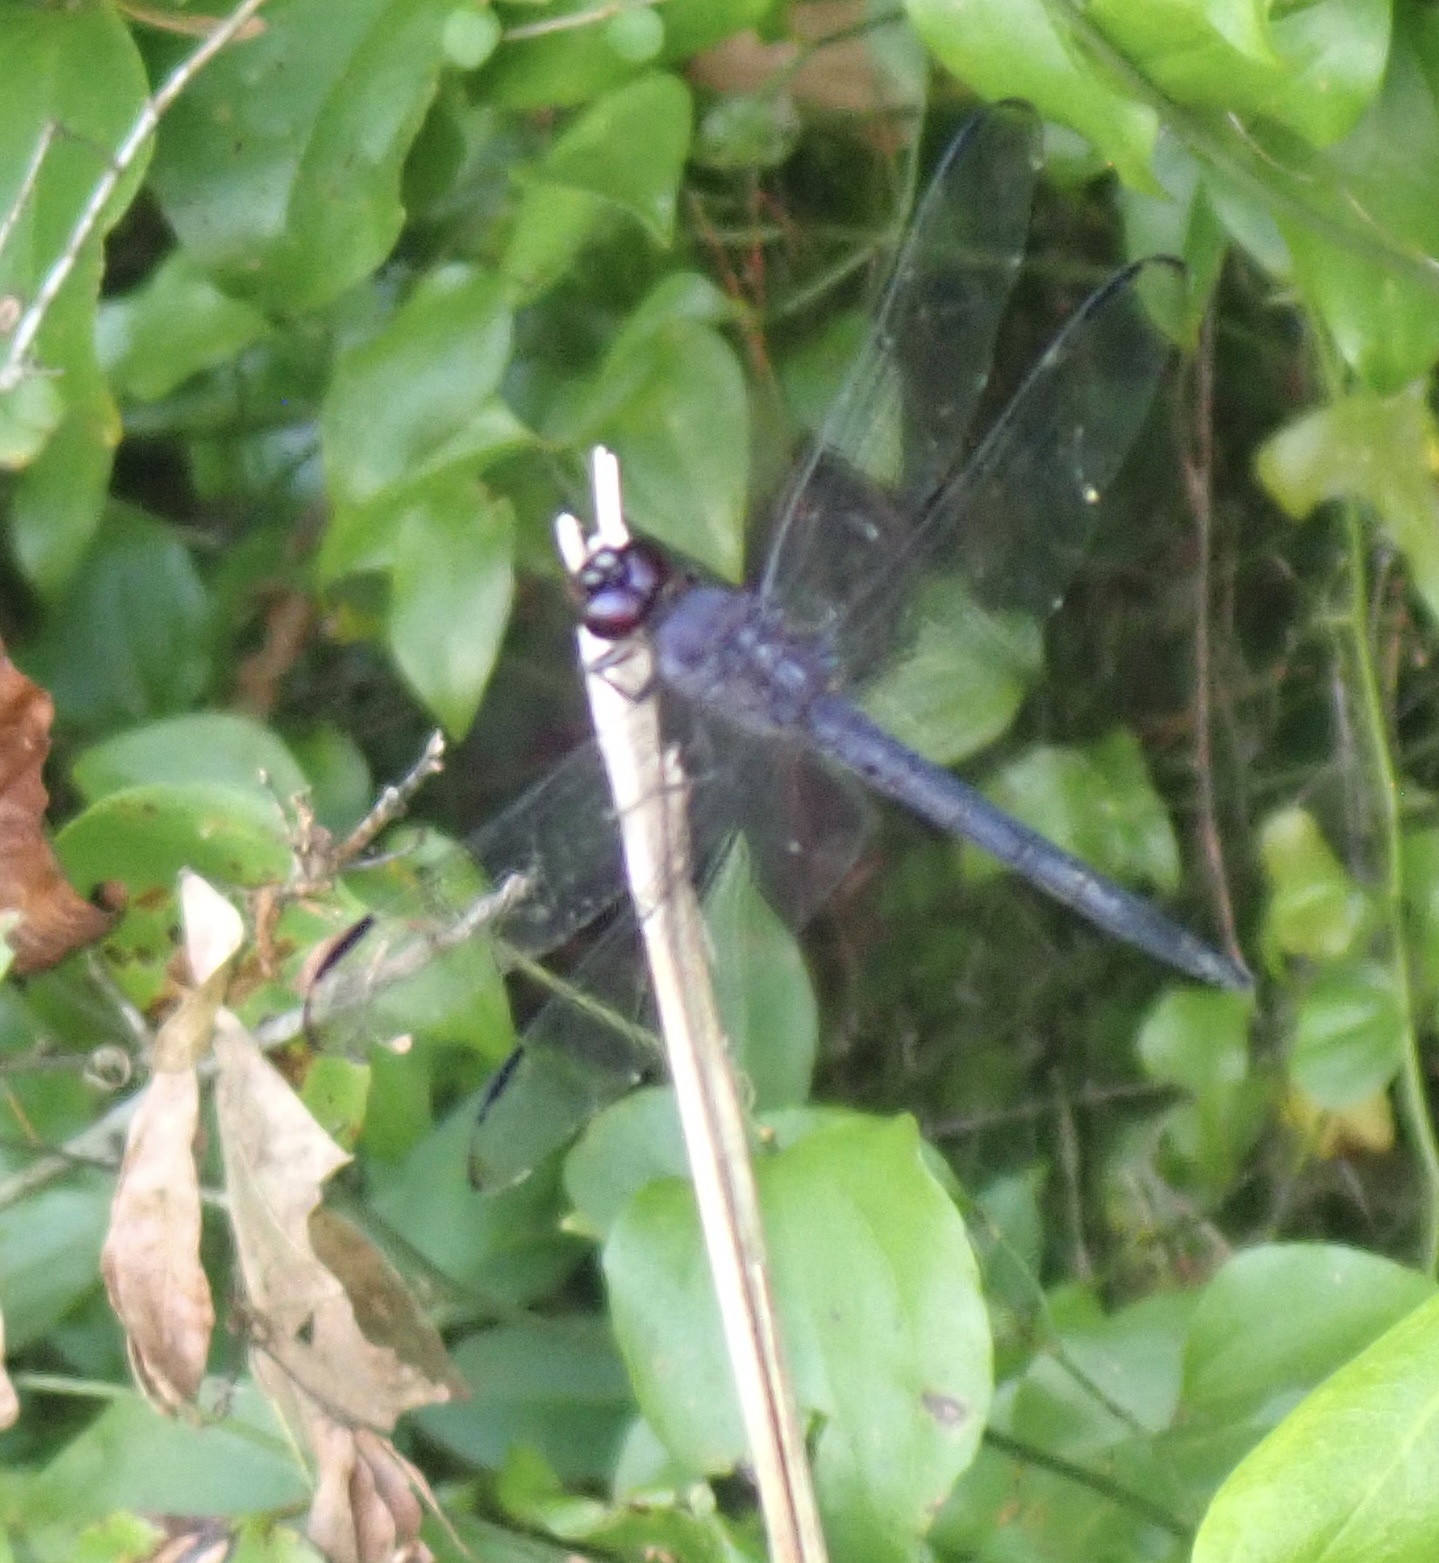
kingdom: Animalia
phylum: Arthropoda
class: Insecta
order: Odonata
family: Libellulidae
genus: Libellula
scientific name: Libellula incesta
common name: Slaty skimmer
